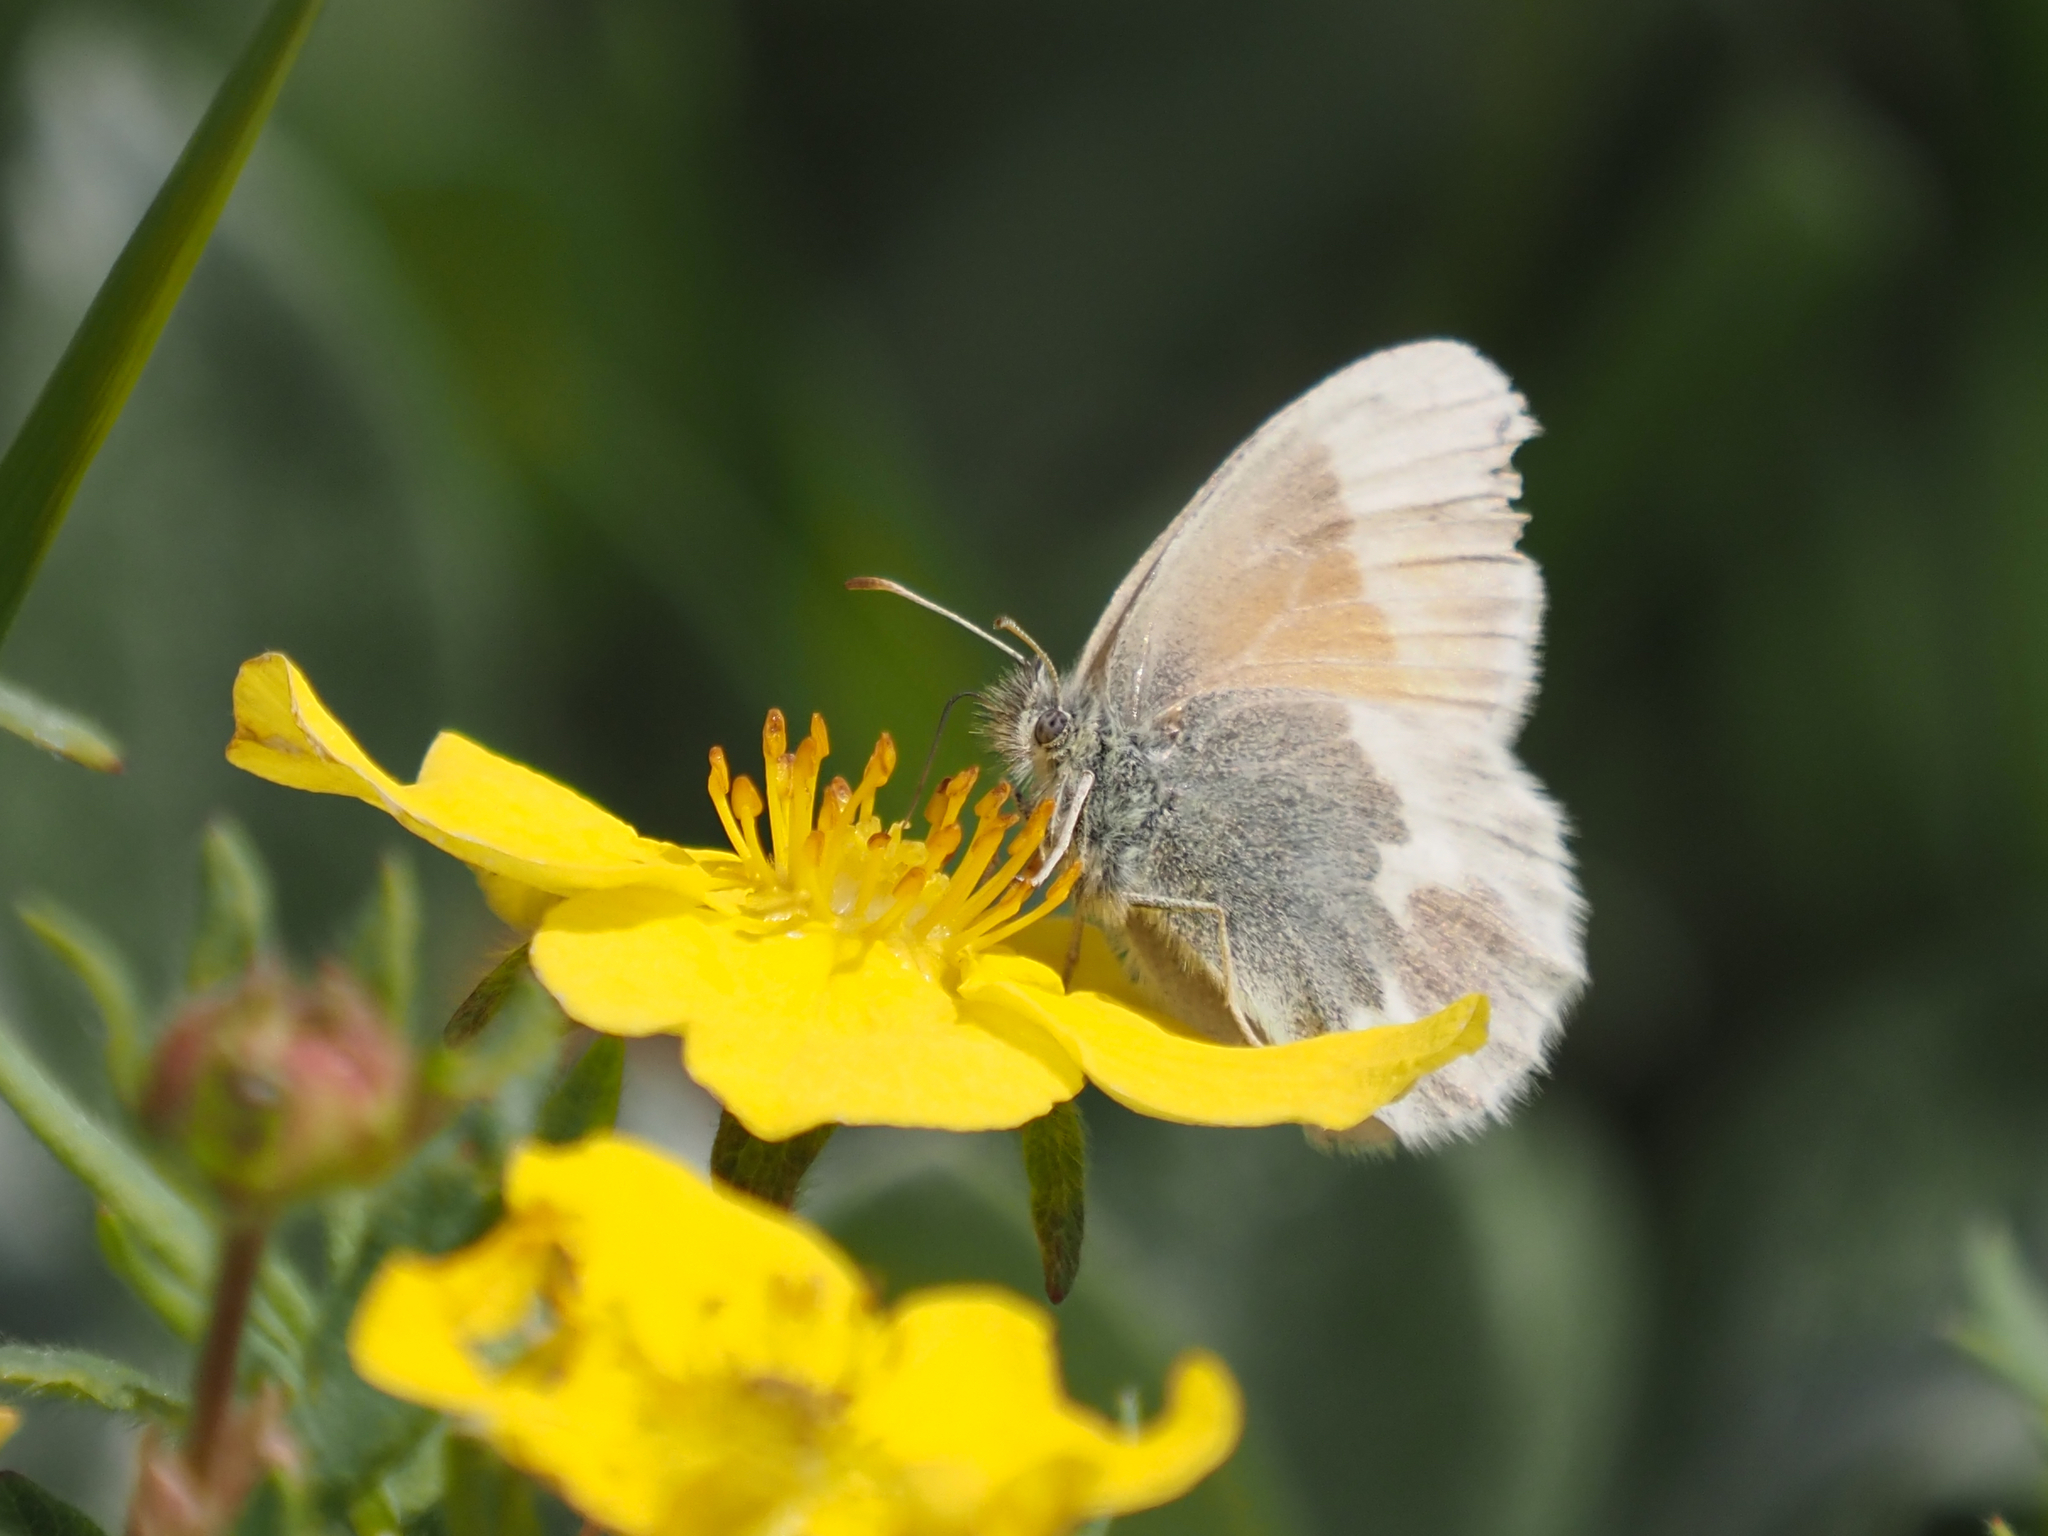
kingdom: Animalia
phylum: Arthropoda
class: Insecta
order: Lepidoptera
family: Nymphalidae
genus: Coenonympha
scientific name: Coenonympha tullia
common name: Large heath
